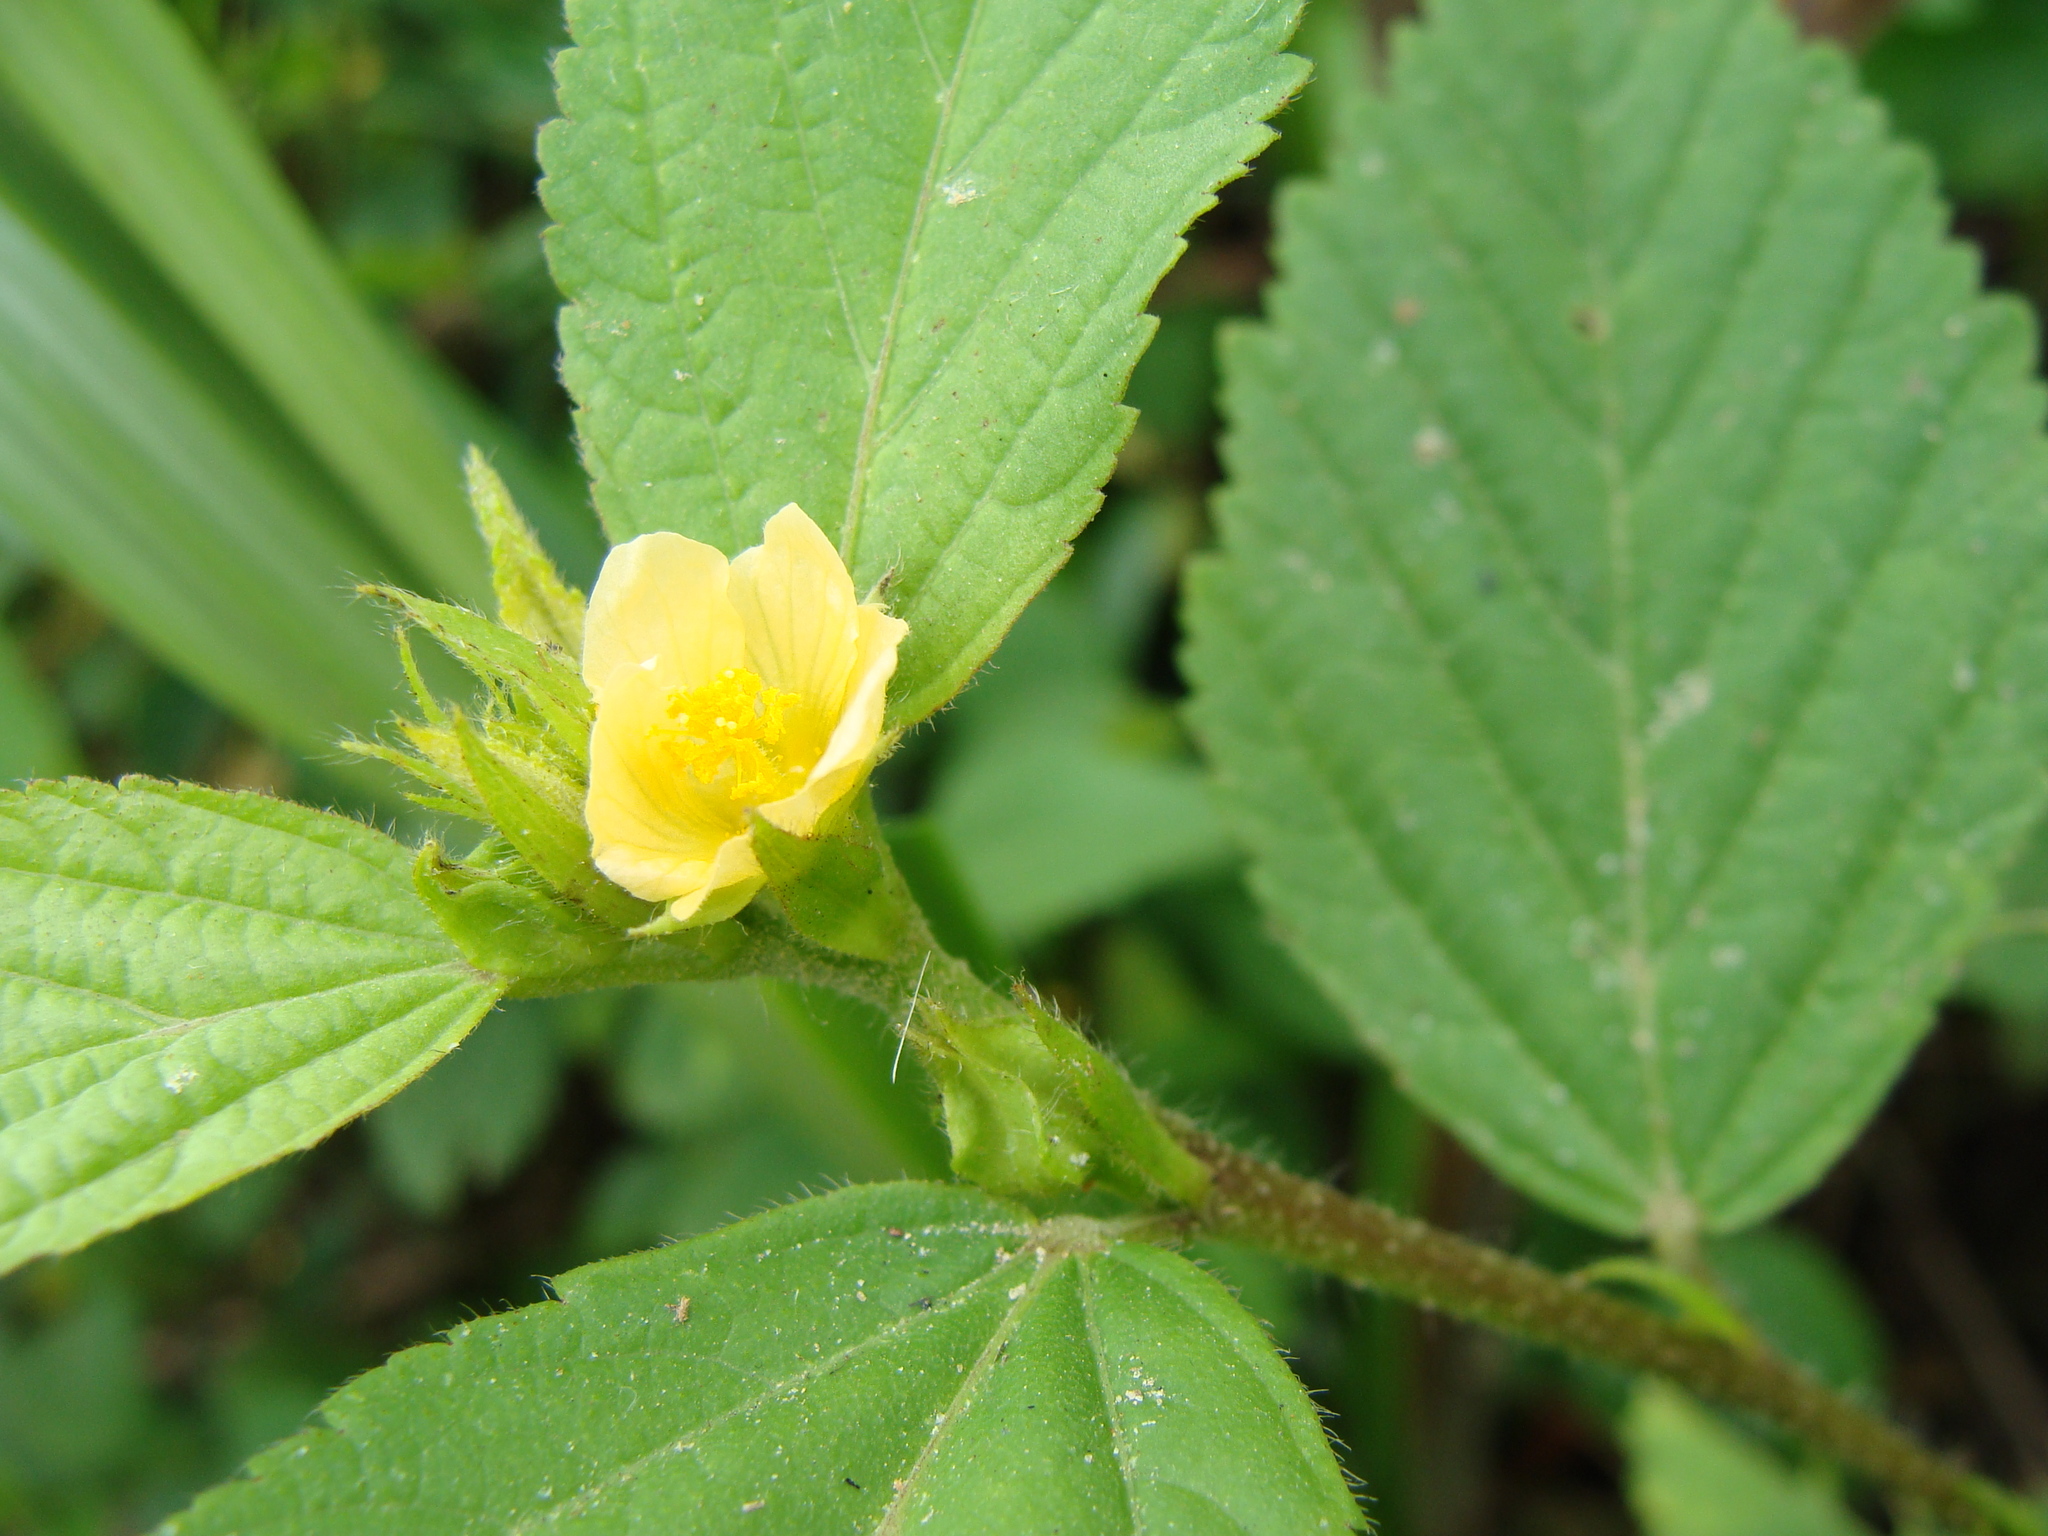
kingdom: Plantae
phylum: Tracheophyta
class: Magnoliopsida
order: Malvales
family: Malvaceae
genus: Sida
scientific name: Sida acuta
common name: Common wireweed
